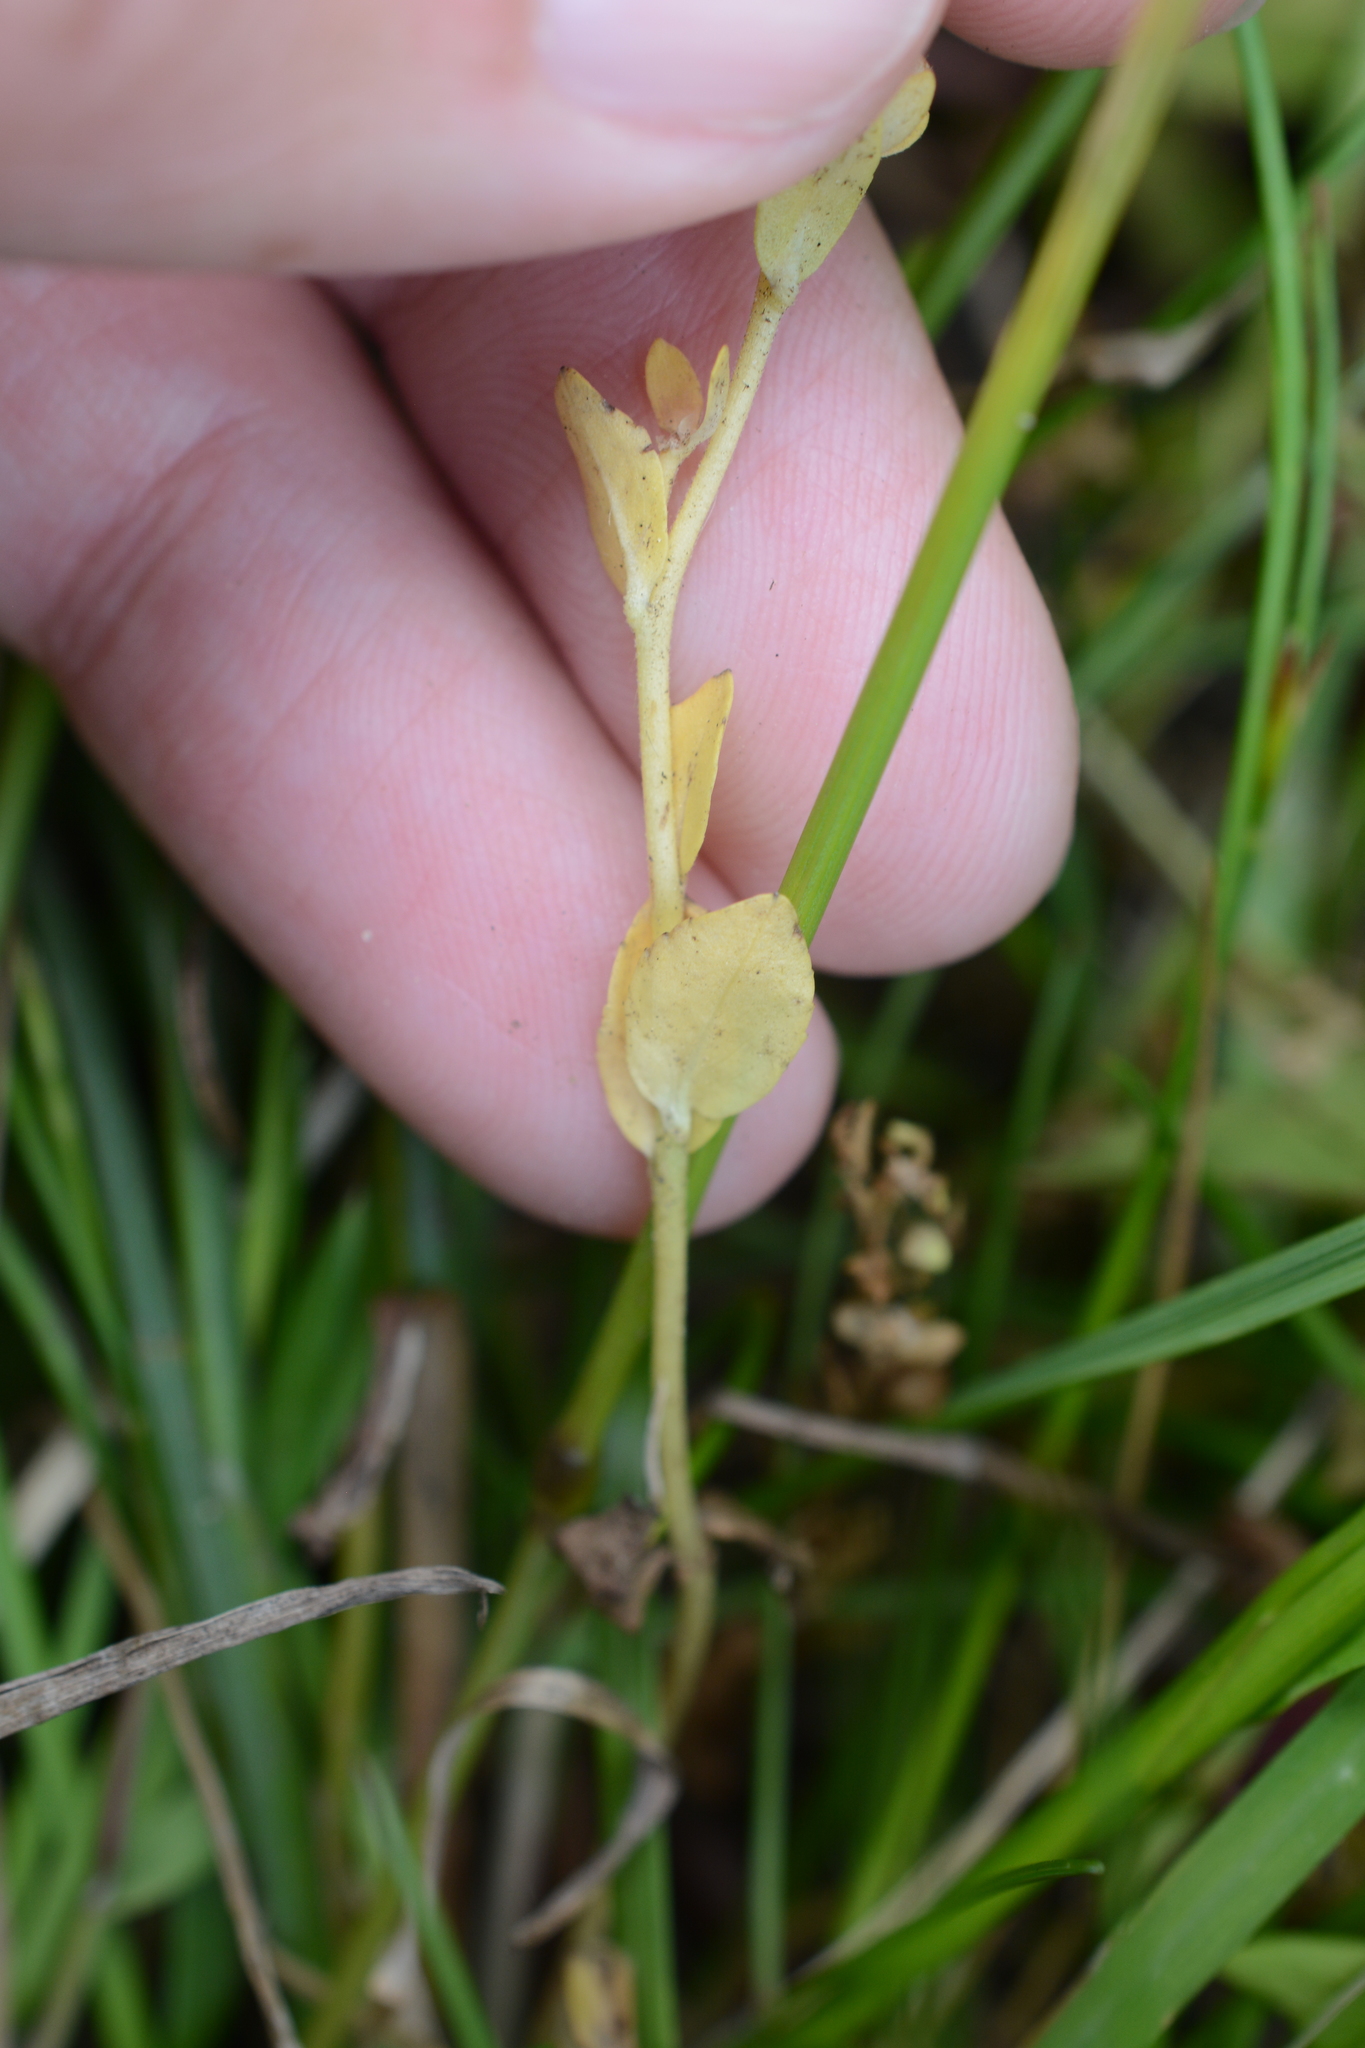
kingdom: Plantae
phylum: Tracheophyta
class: Magnoliopsida
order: Lamiales
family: Plantaginaceae
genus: Veronica
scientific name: Veronica serpyllifolia
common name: Thyme-leaved speedwell
